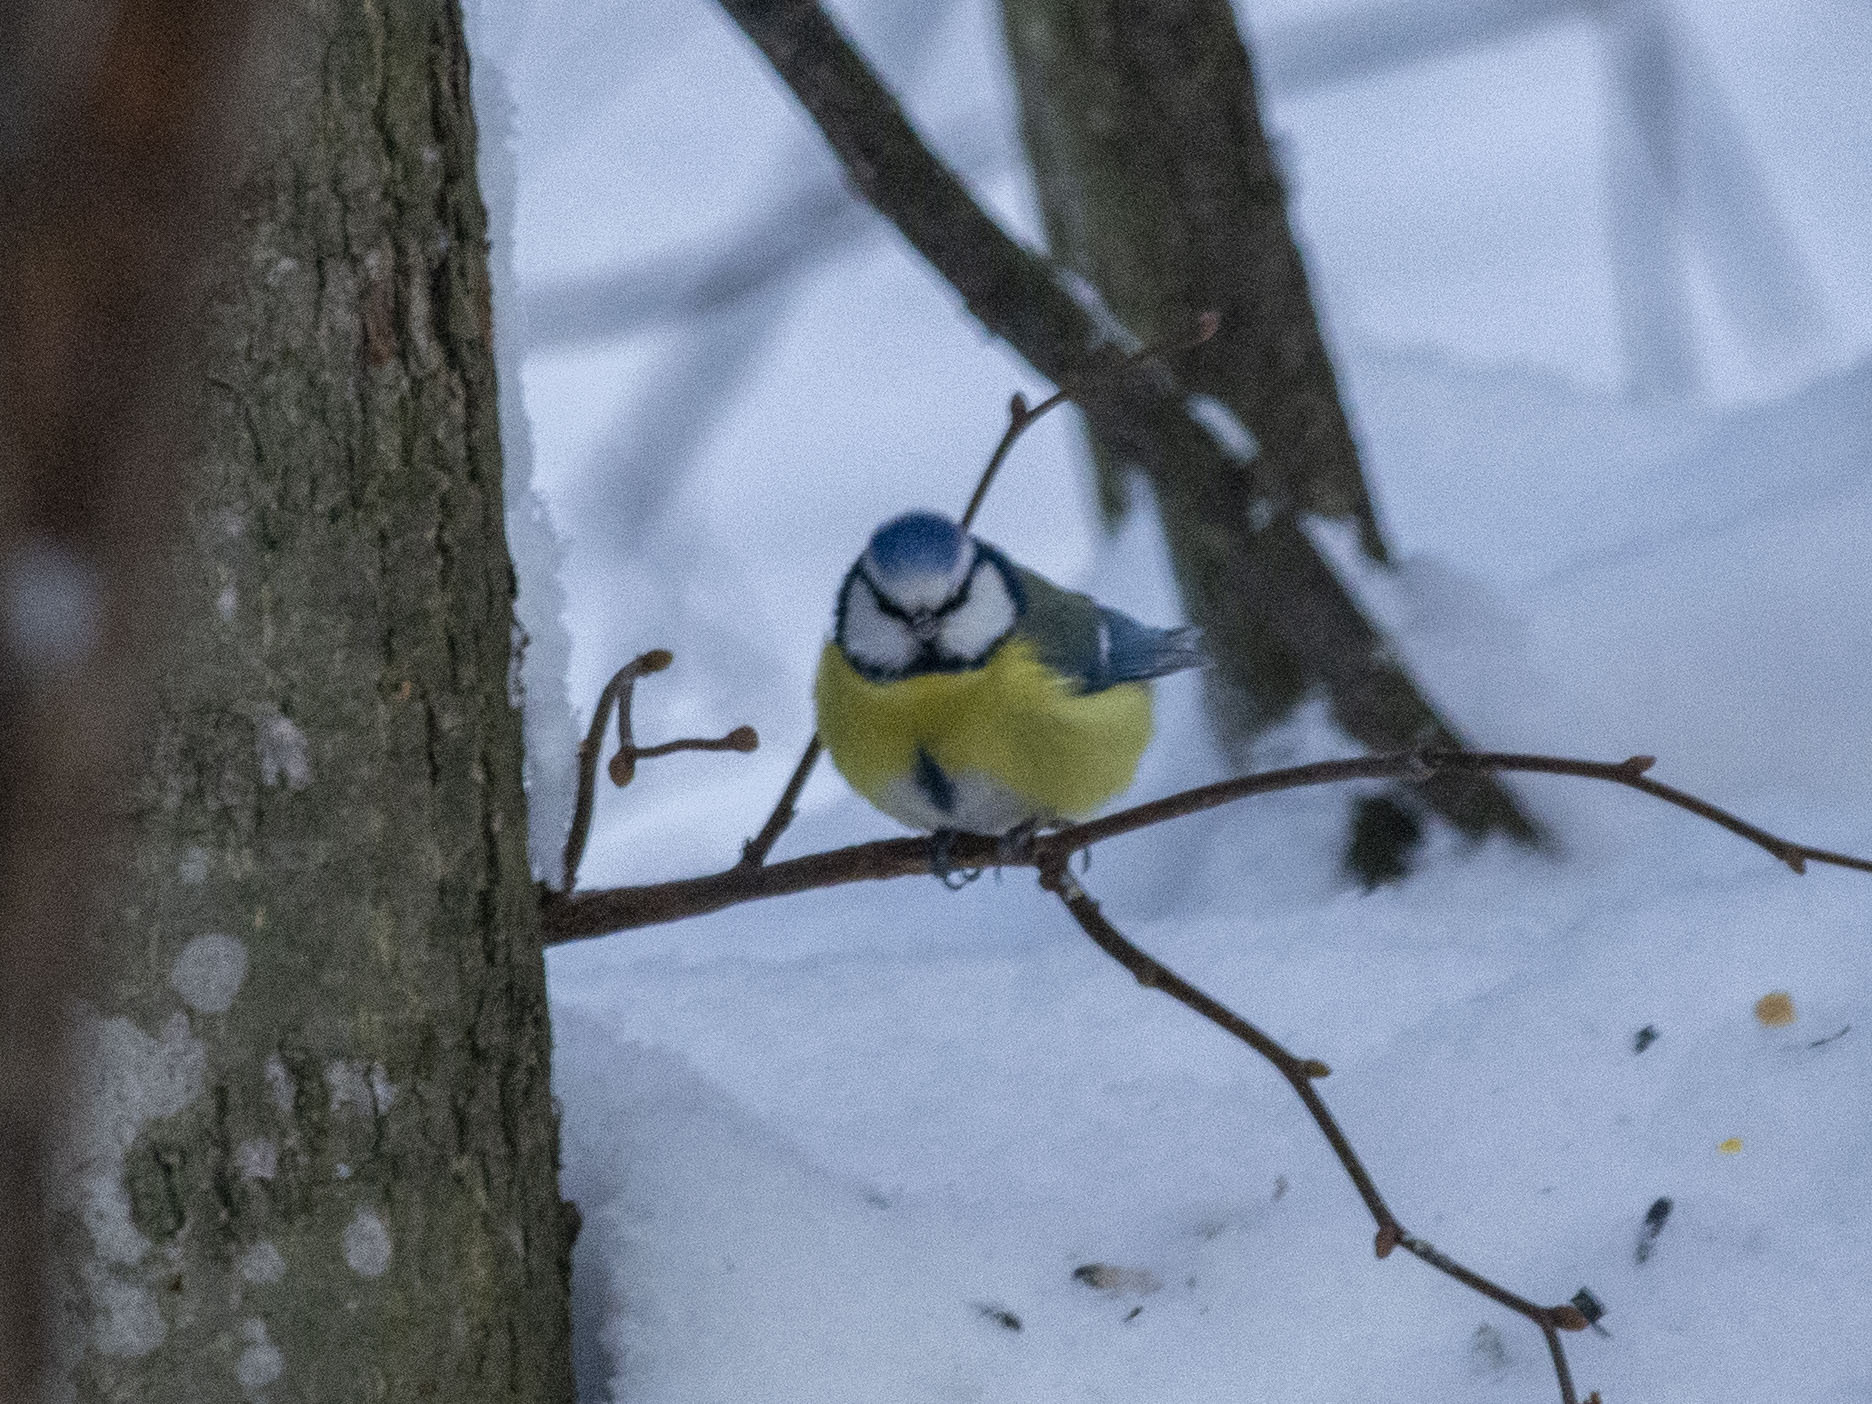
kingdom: Animalia
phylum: Chordata
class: Aves
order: Passeriformes
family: Paridae
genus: Cyanistes
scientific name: Cyanistes caeruleus
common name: Eurasian blue tit
